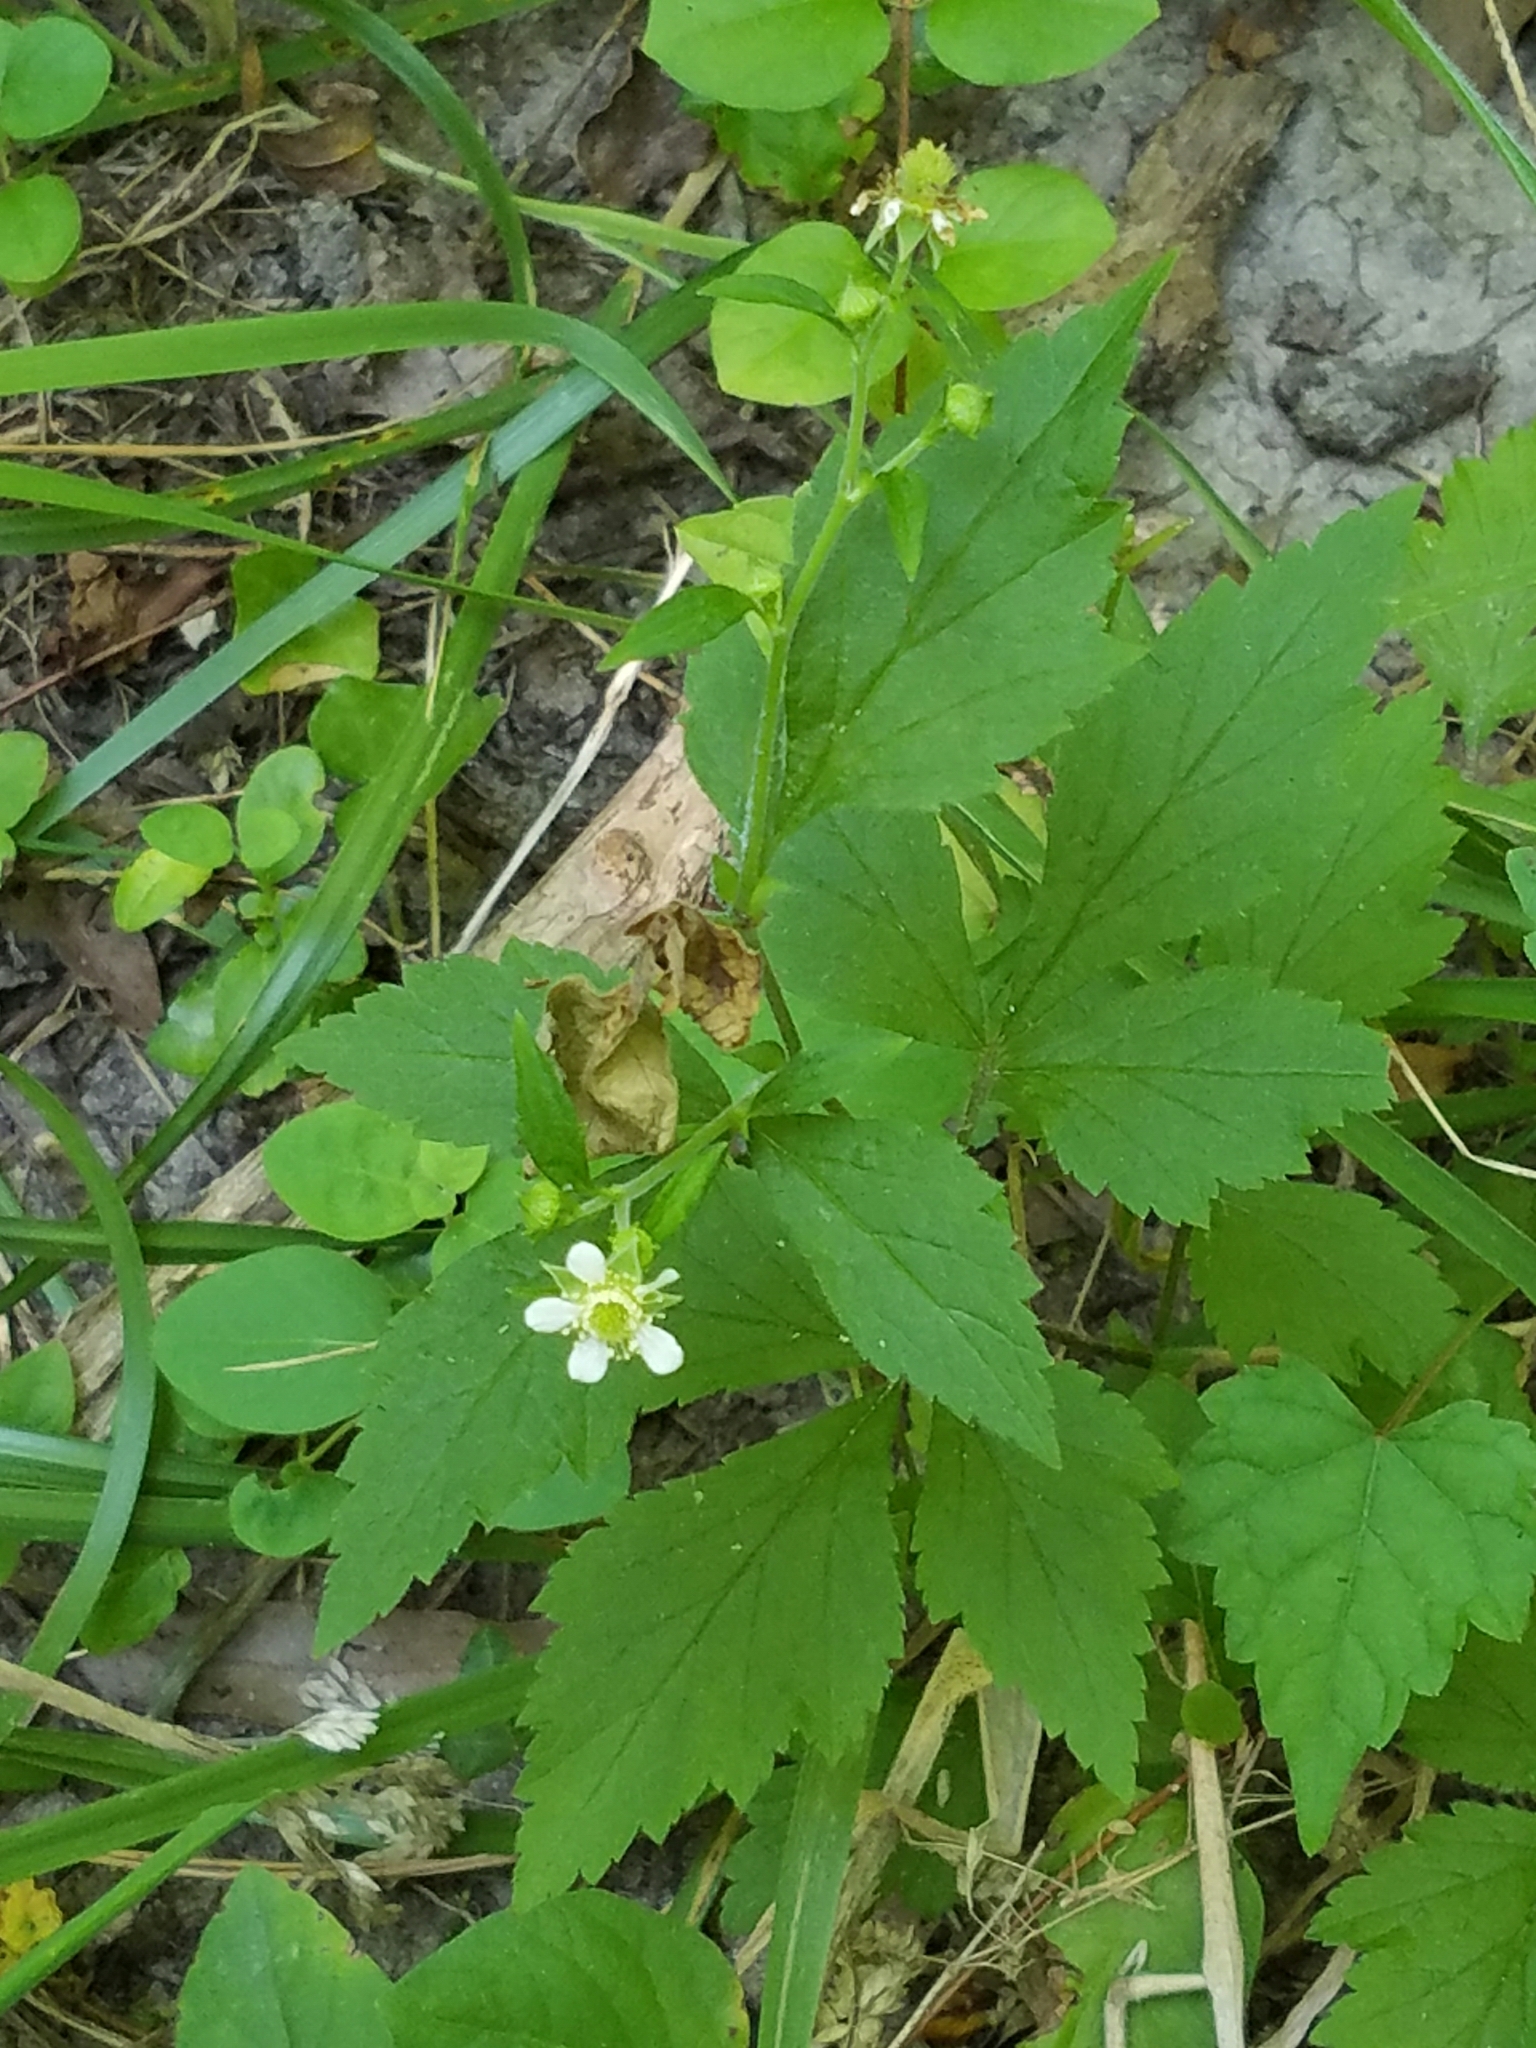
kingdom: Plantae
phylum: Tracheophyta
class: Magnoliopsida
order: Rosales
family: Rosaceae
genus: Geum
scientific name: Geum canadense
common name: White avens
